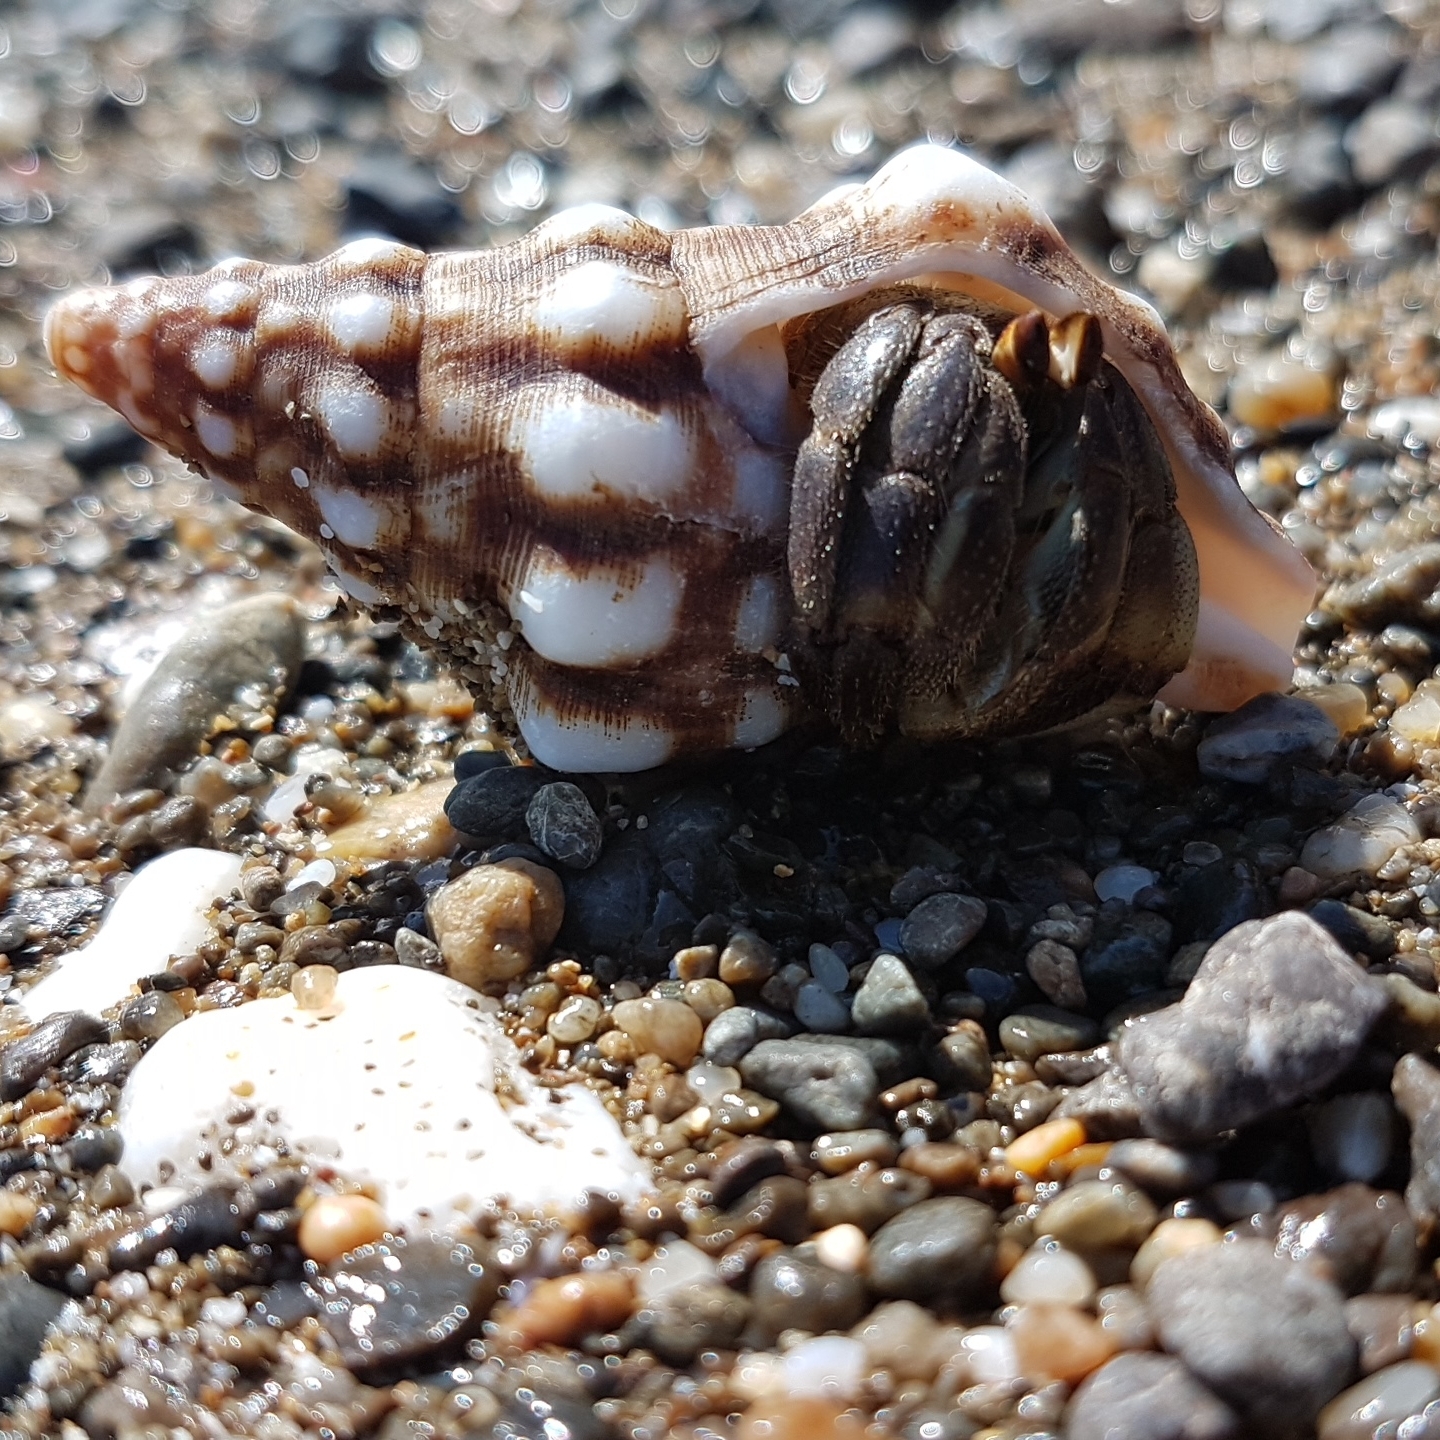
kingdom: Animalia
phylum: Mollusca
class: Gastropoda
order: Neogastropoda
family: Fasciolariidae
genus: Leucozonia
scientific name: Leucozonia cerata
